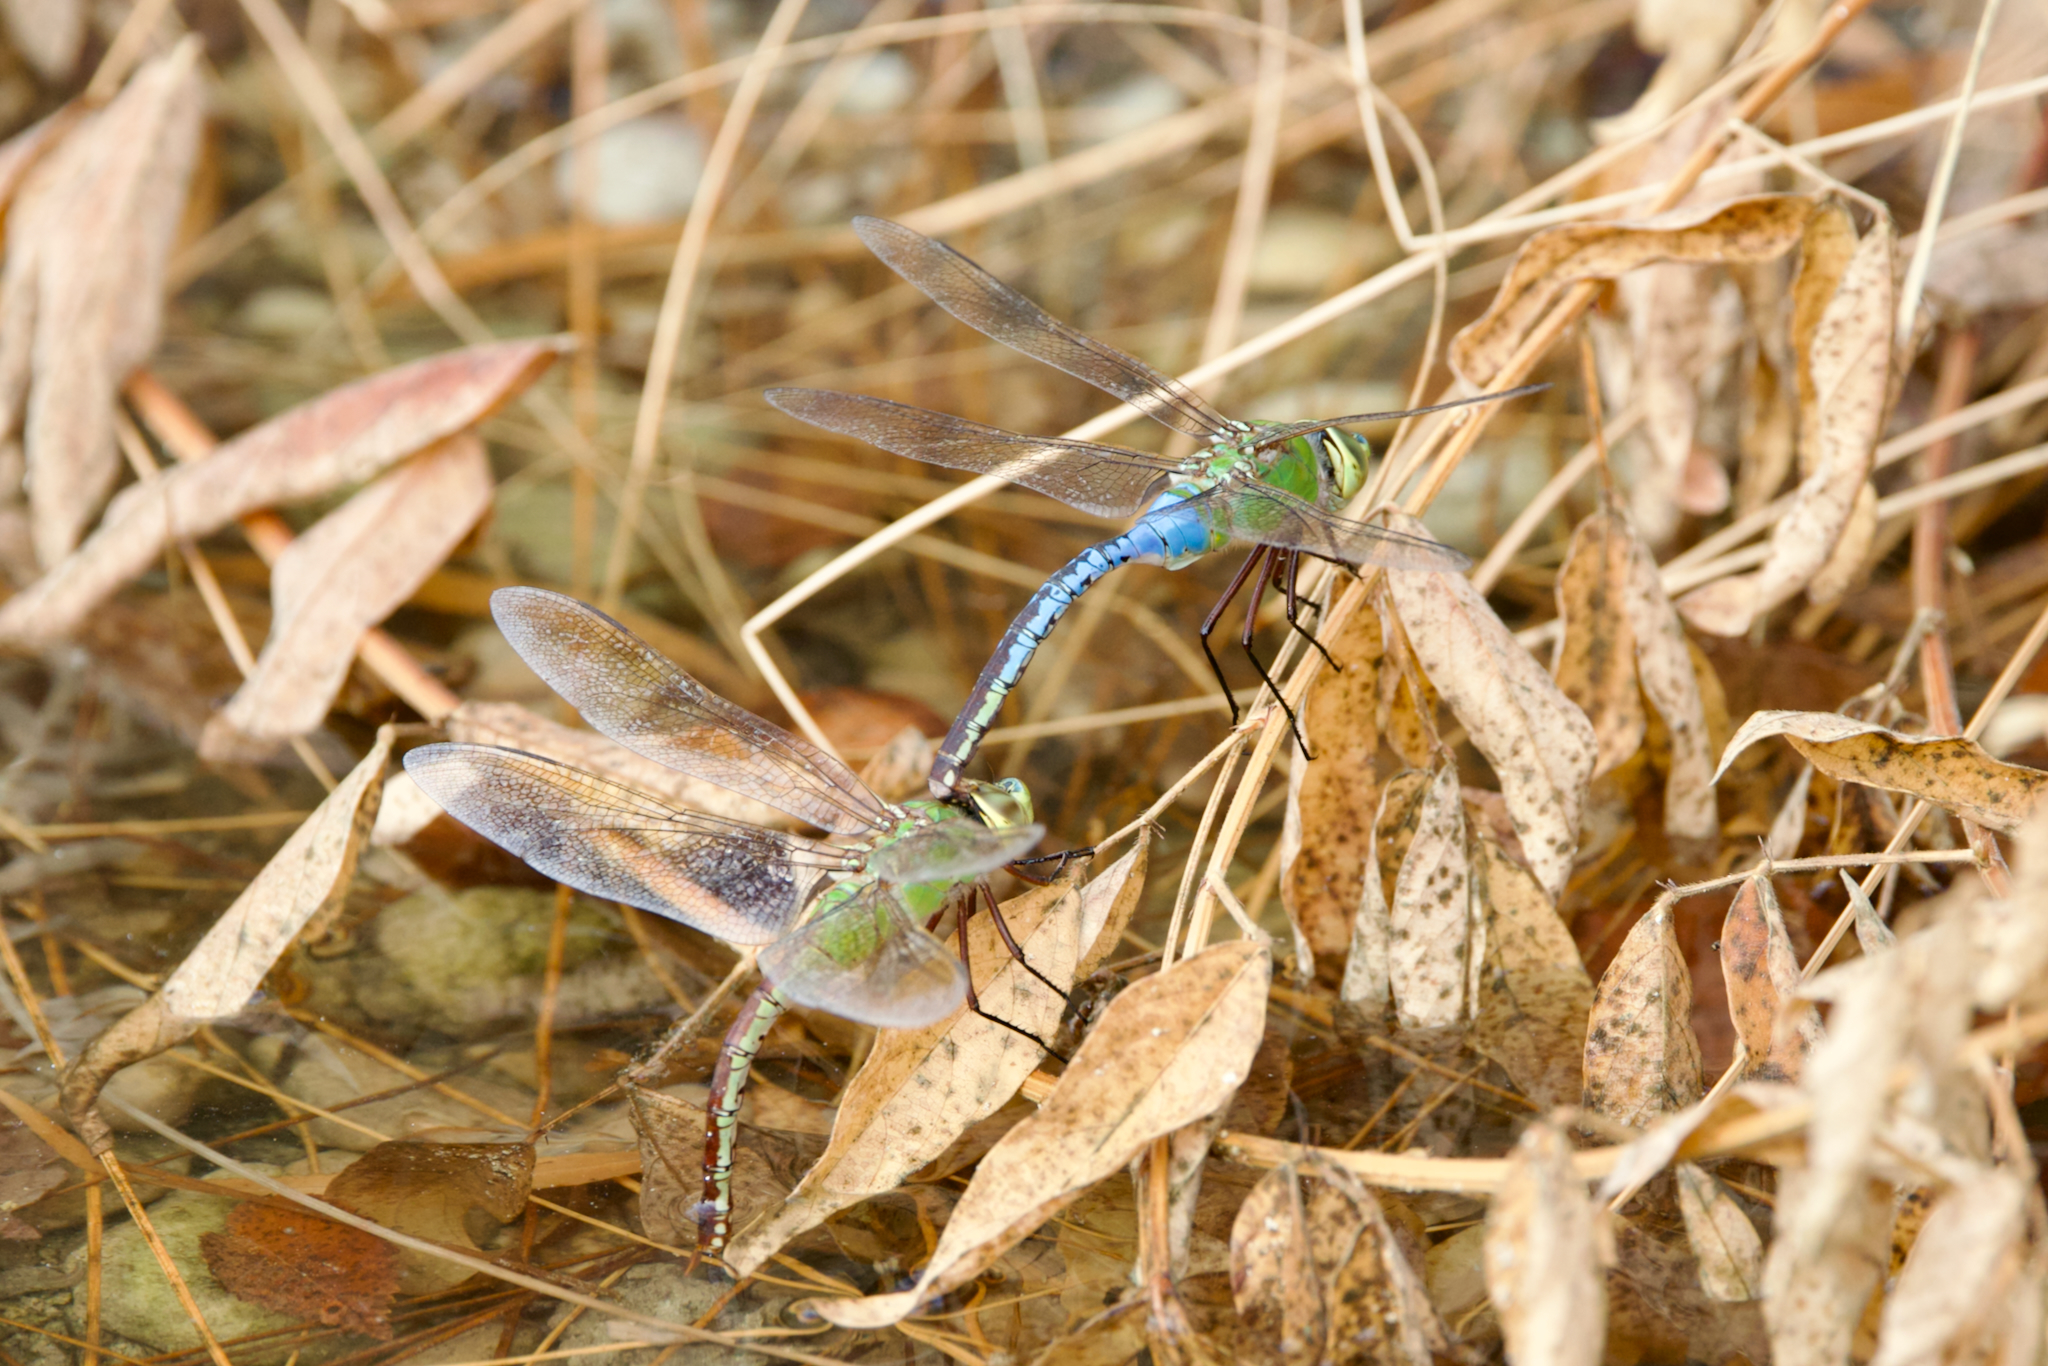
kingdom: Animalia
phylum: Arthropoda
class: Insecta
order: Odonata
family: Aeshnidae
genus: Anax
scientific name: Anax junius
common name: Common green darner
